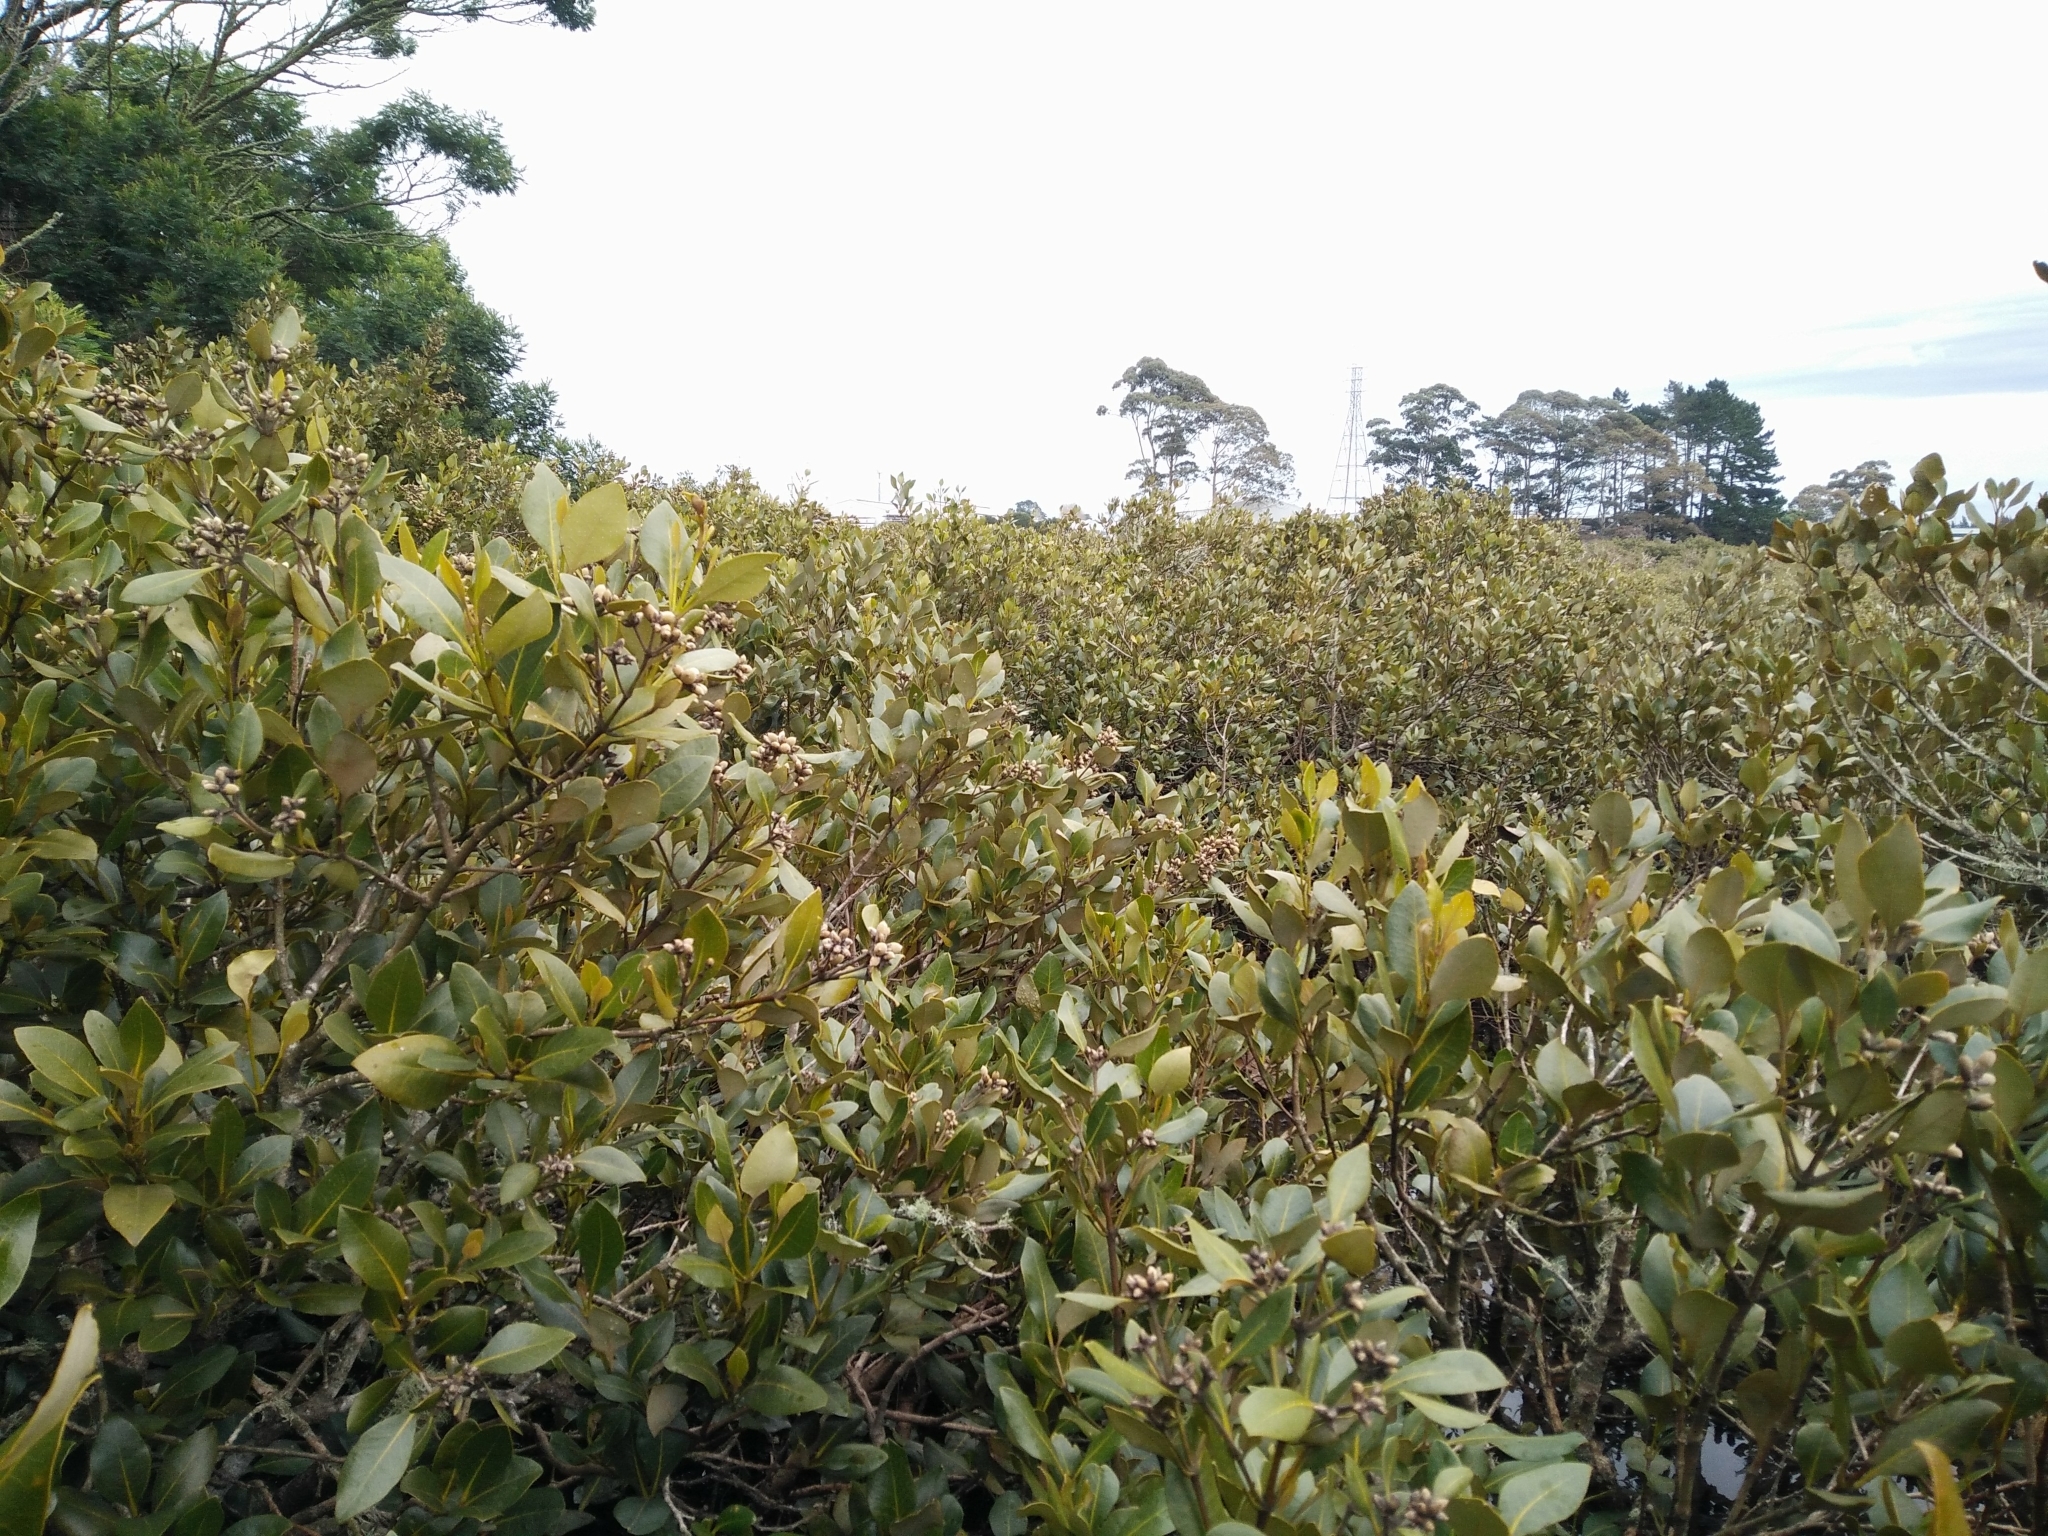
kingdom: Plantae
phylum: Tracheophyta
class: Magnoliopsida
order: Lamiales
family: Acanthaceae
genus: Avicennia
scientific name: Avicennia marina
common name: Gray mangrove
